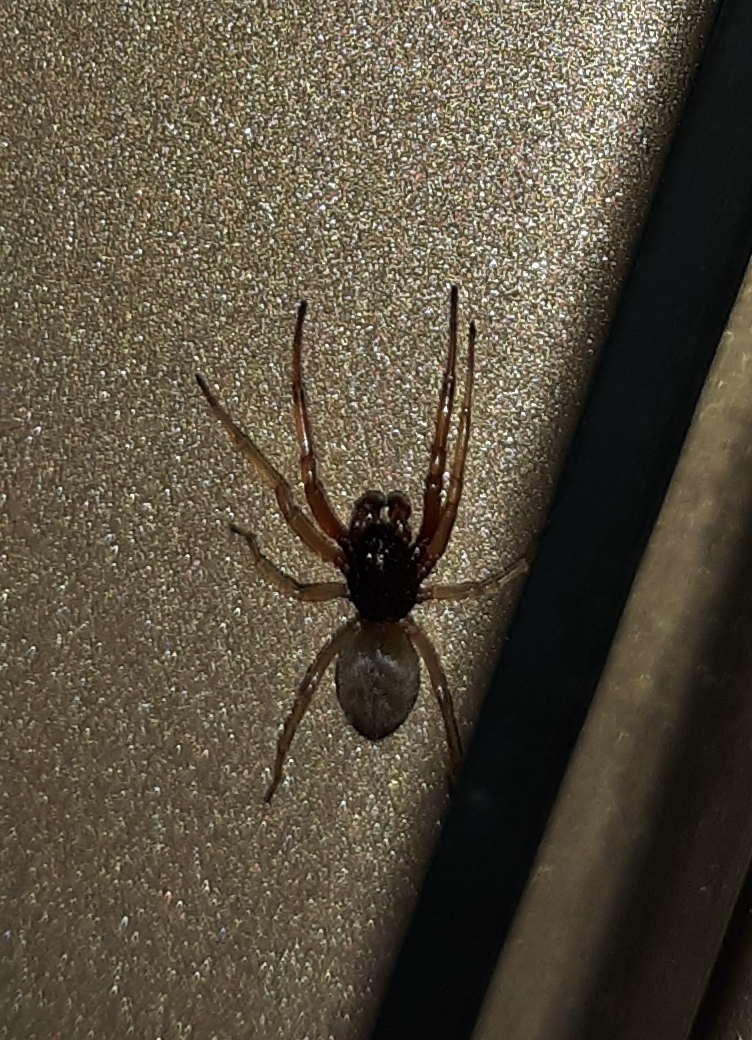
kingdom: Animalia
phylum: Arthropoda
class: Arachnida
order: Araneae
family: Trachelidae
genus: Trachelas
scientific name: Trachelas tranquillus
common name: Broad-faced sac spider
